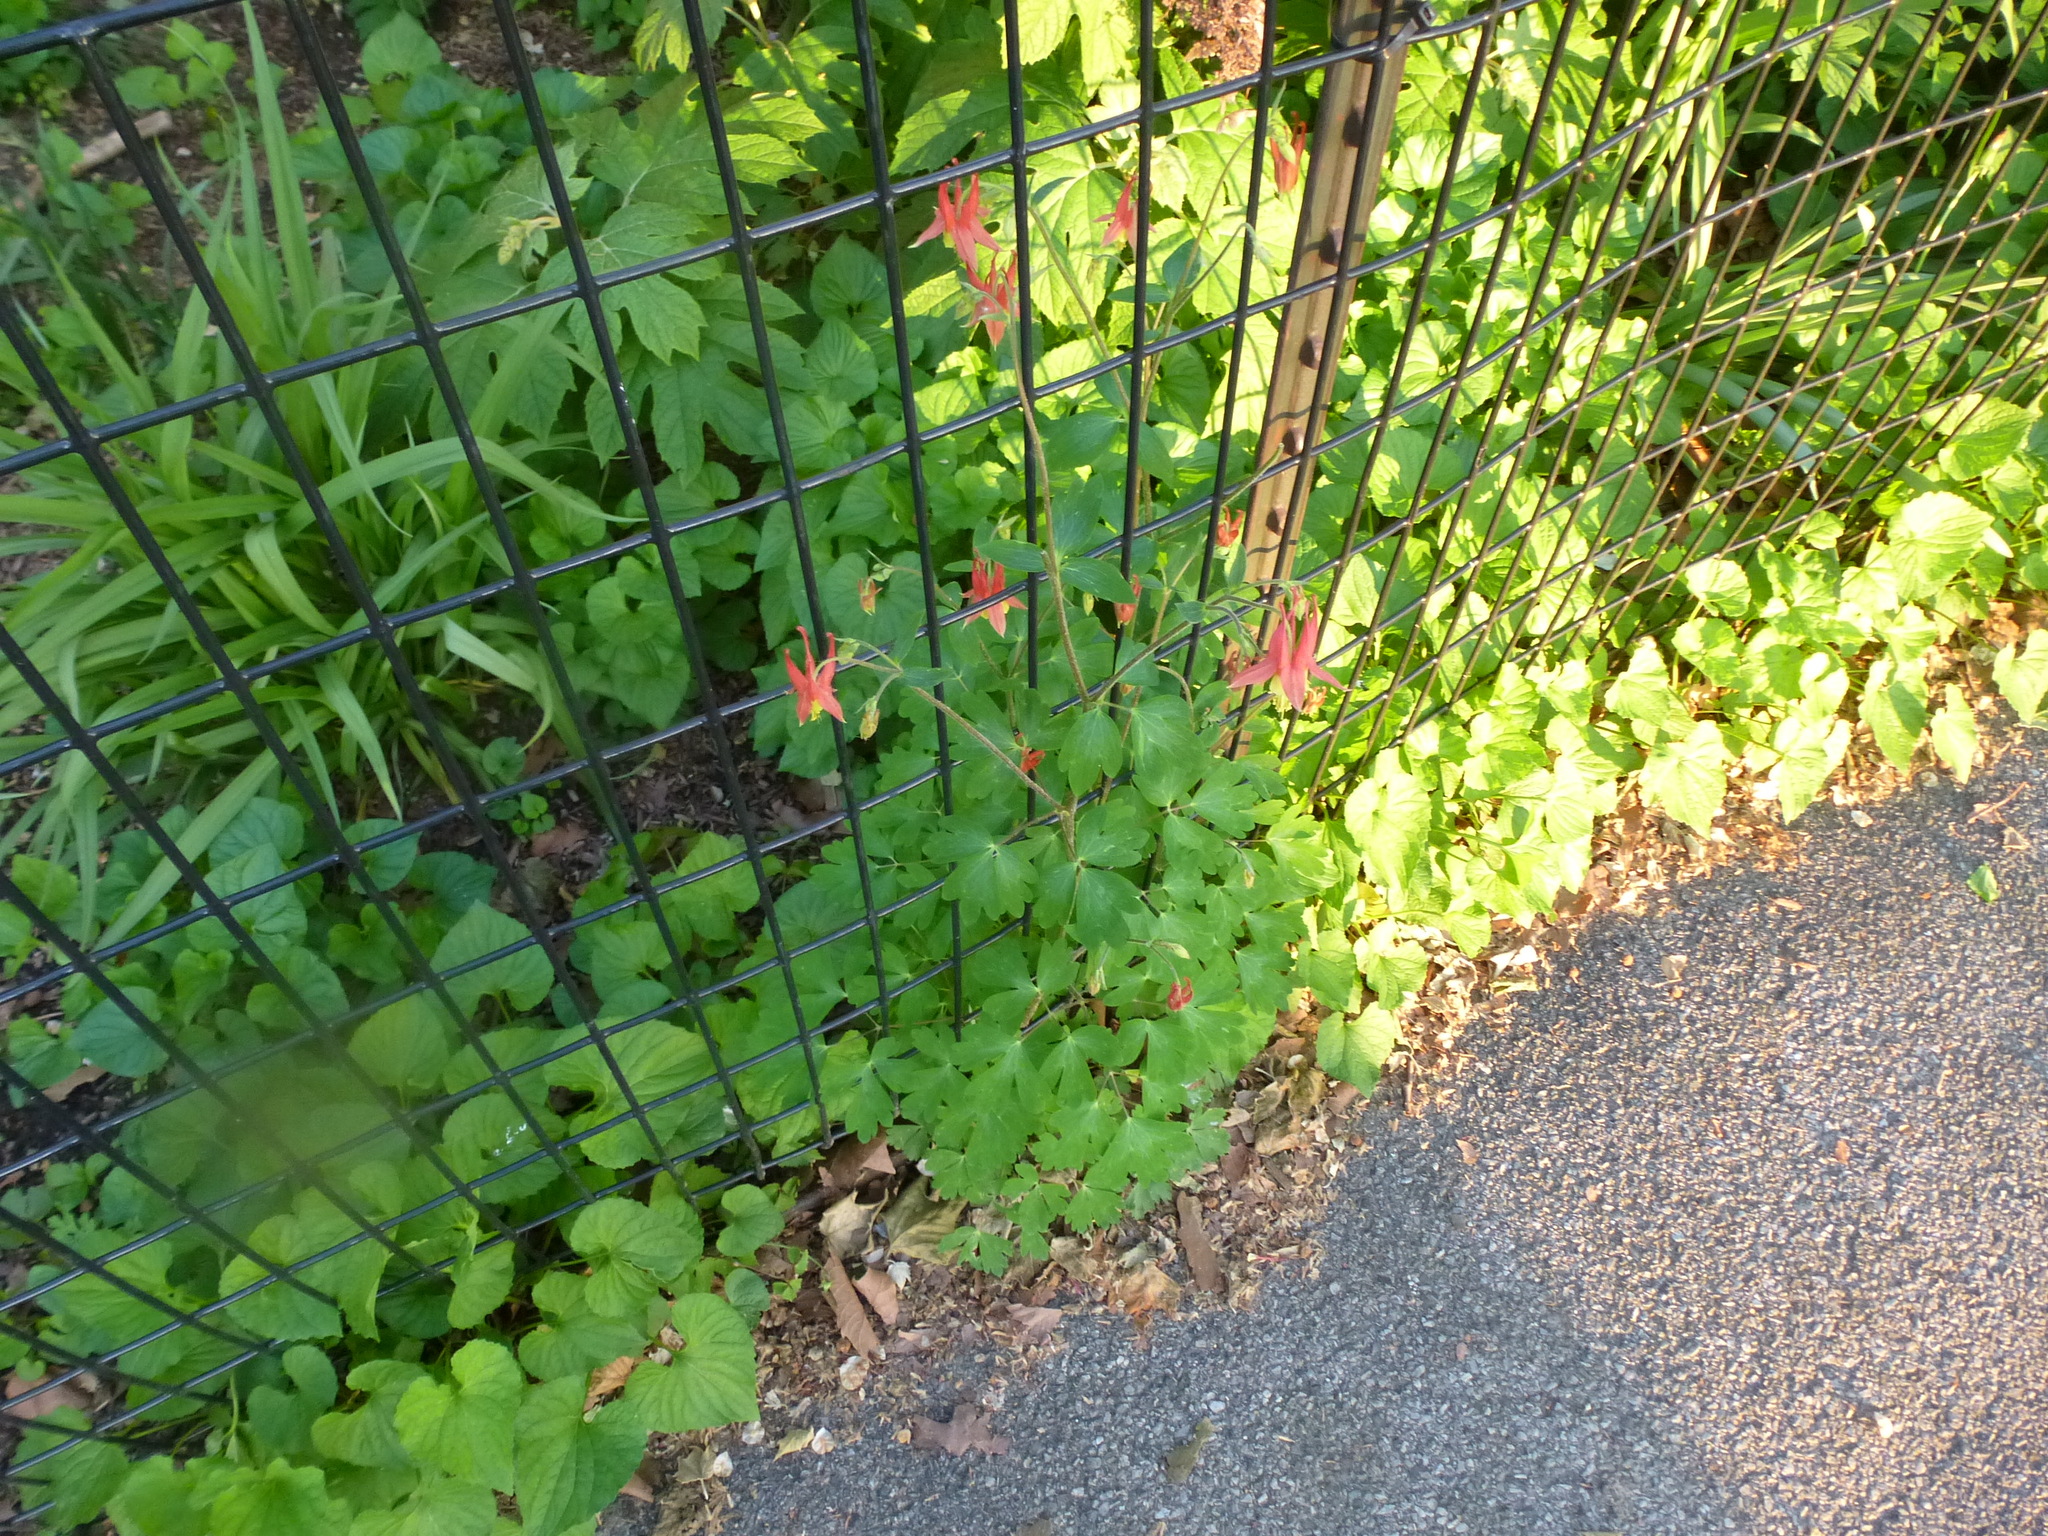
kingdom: Plantae
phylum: Tracheophyta
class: Magnoliopsida
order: Ranunculales
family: Ranunculaceae
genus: Aquilegia
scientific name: Aquilegia canadensis
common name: American columbine
